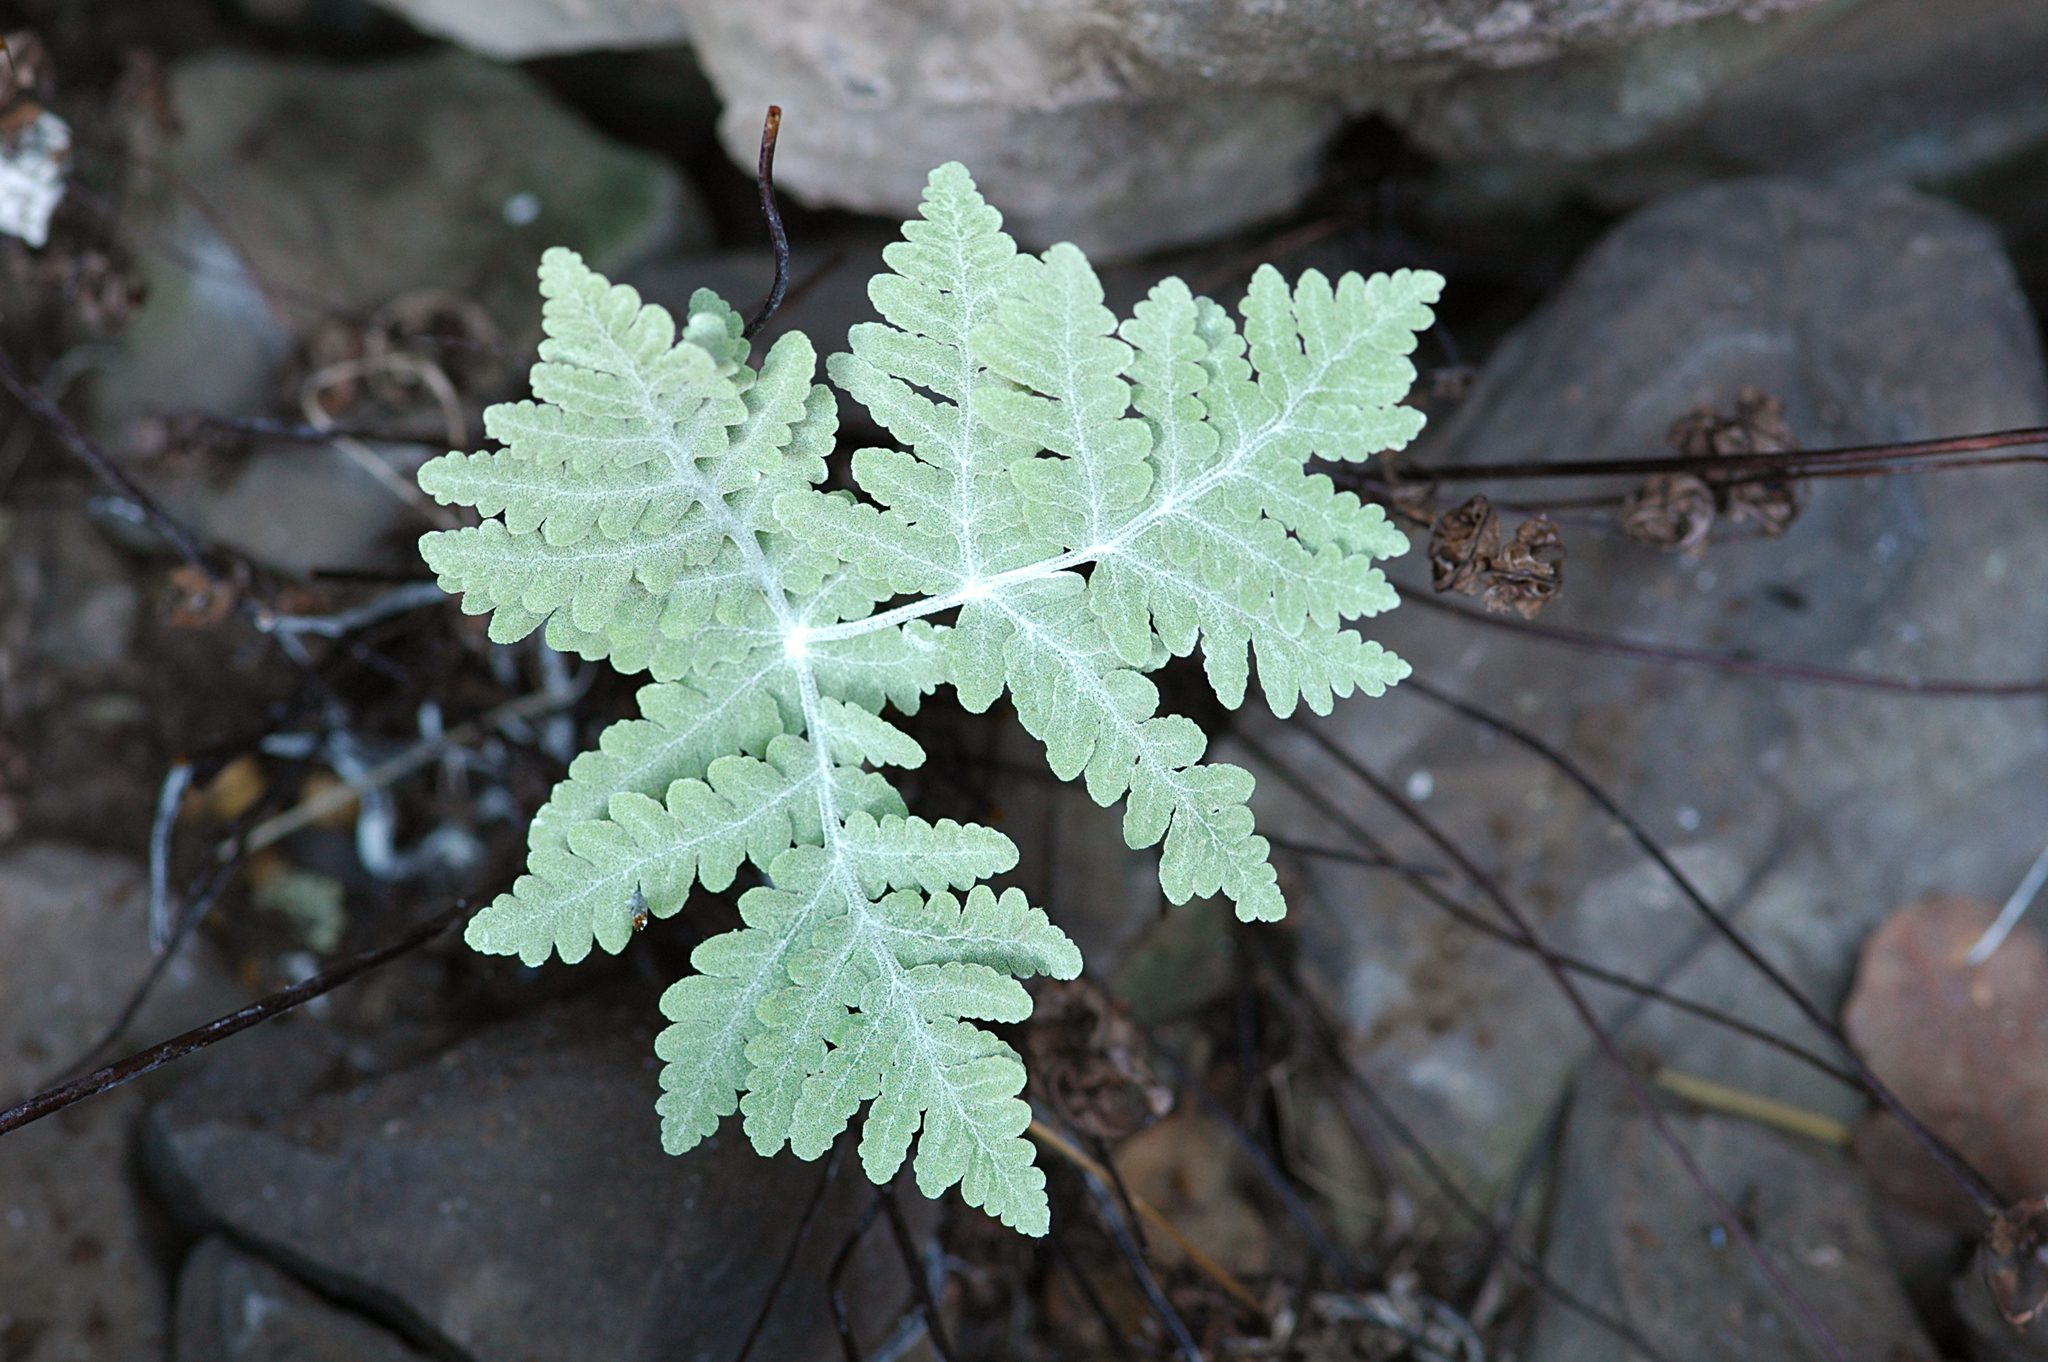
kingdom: Plantae
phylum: Tracheophyta
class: Polypodiopsida
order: Polypodiales
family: Pteridaceae
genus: Pentagramma
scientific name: Pentagramma pallida
